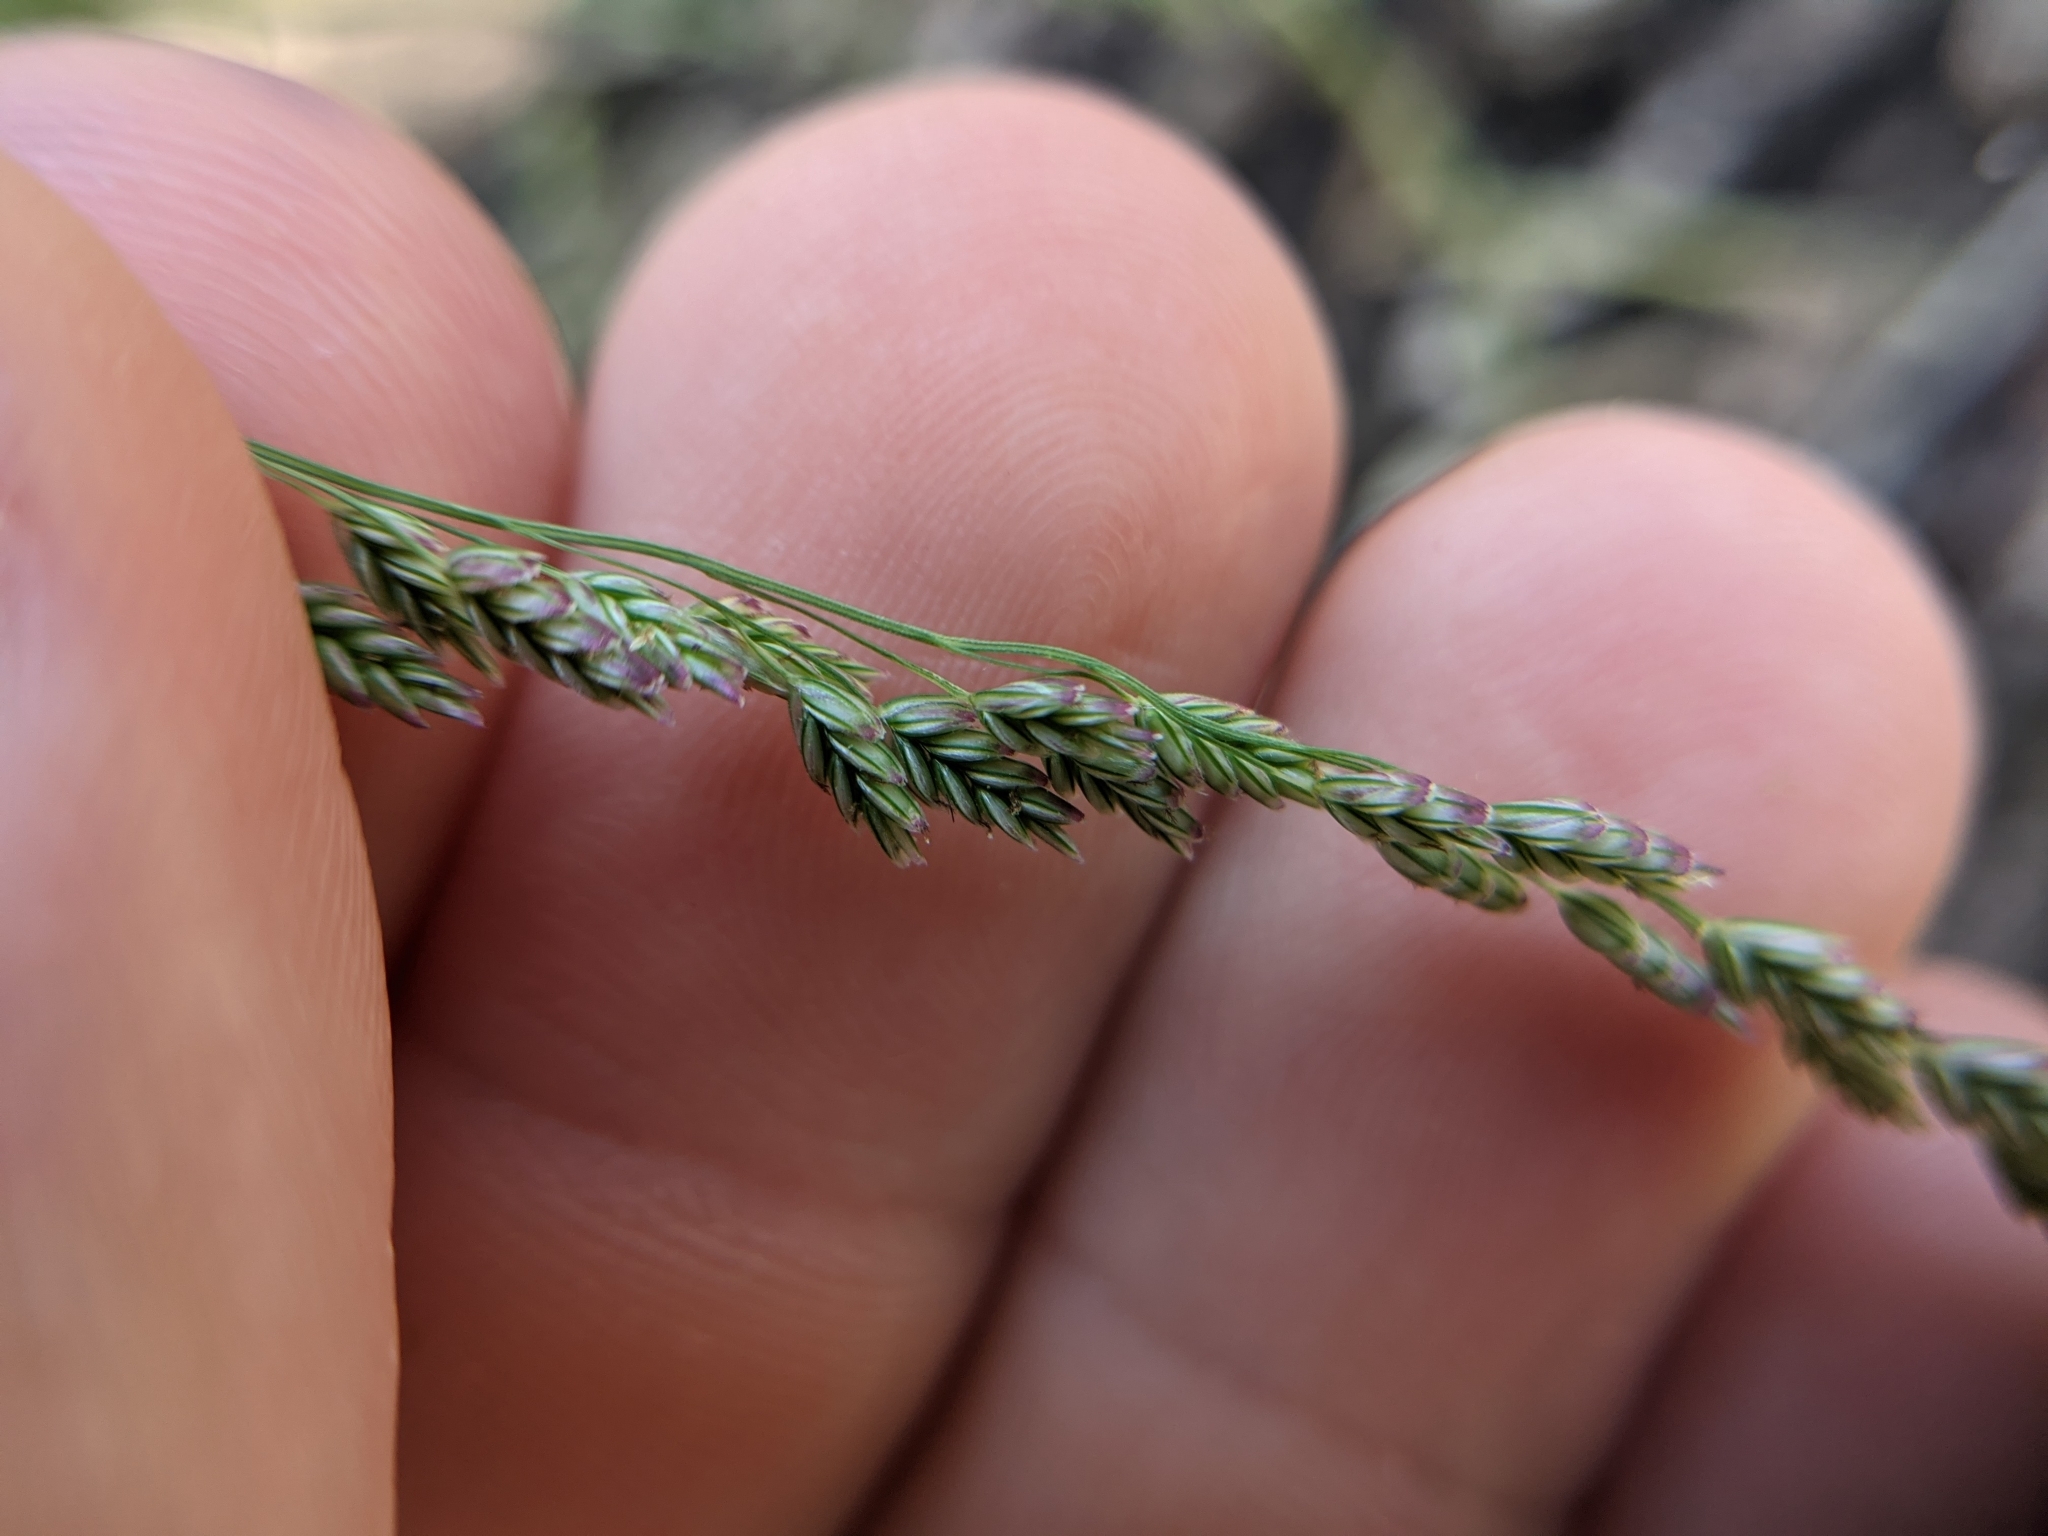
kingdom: Plantae
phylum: Tracheophyta
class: Liliopsida
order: Poales
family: Poaceae
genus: Triplasiella
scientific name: Triplasiella eragrostoides
